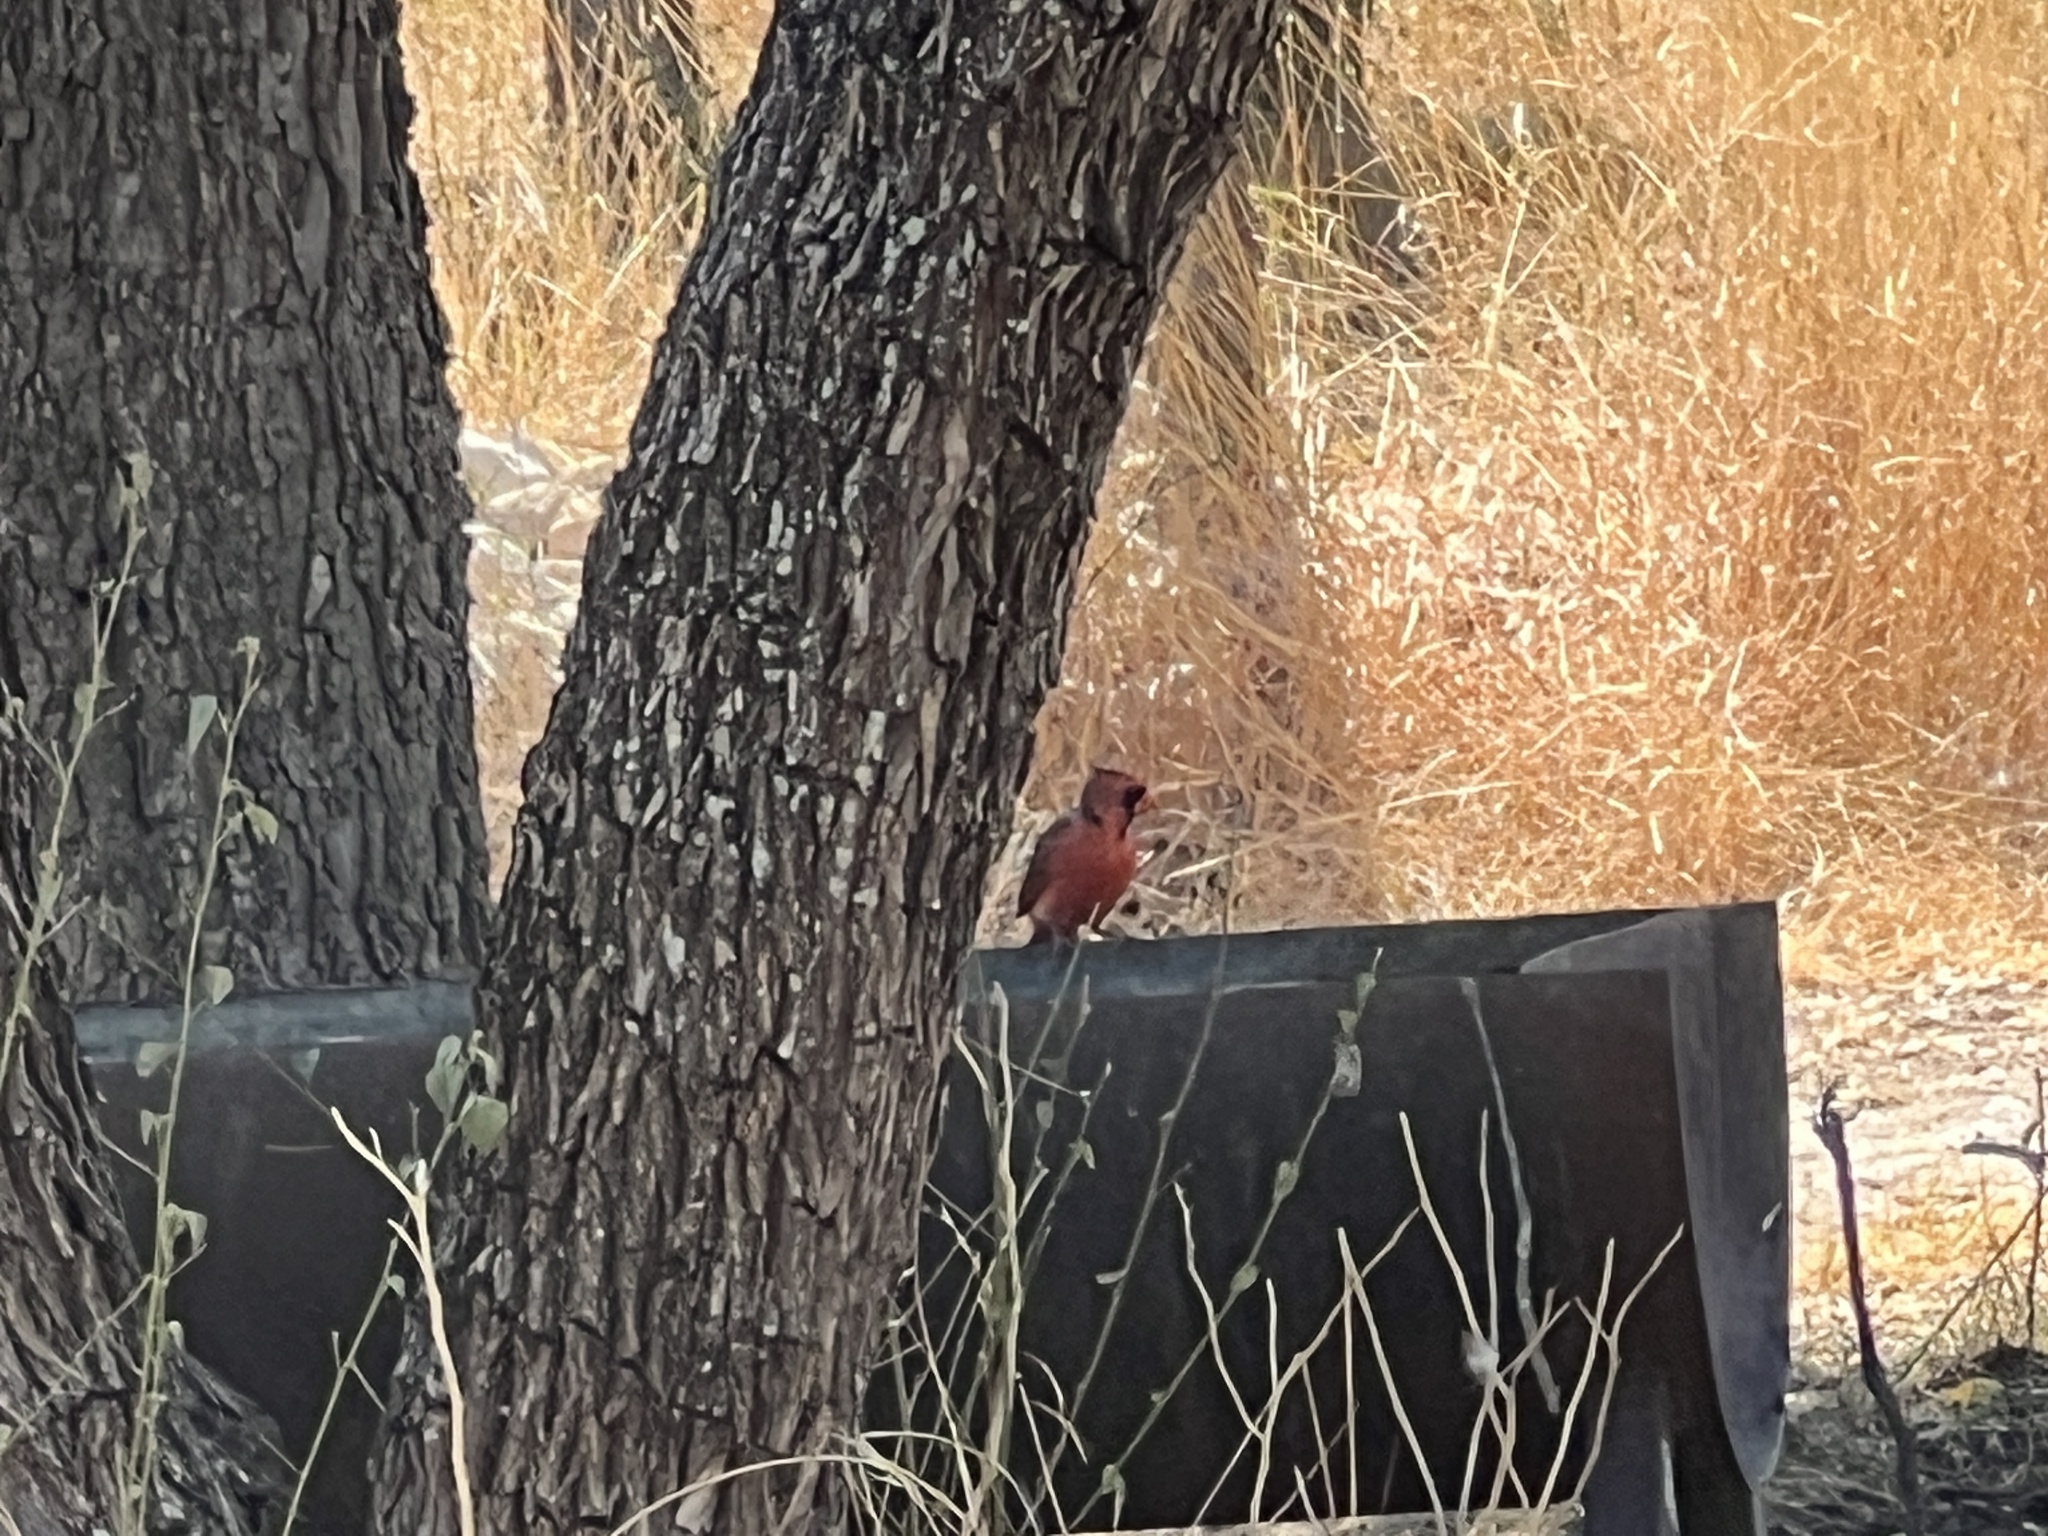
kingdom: Animalia
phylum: Chordata
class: Aves
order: Passeriformes
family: Cardinalidae
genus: Cardinalis
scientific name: Cardinalis cardinalis
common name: Northern cardinal
